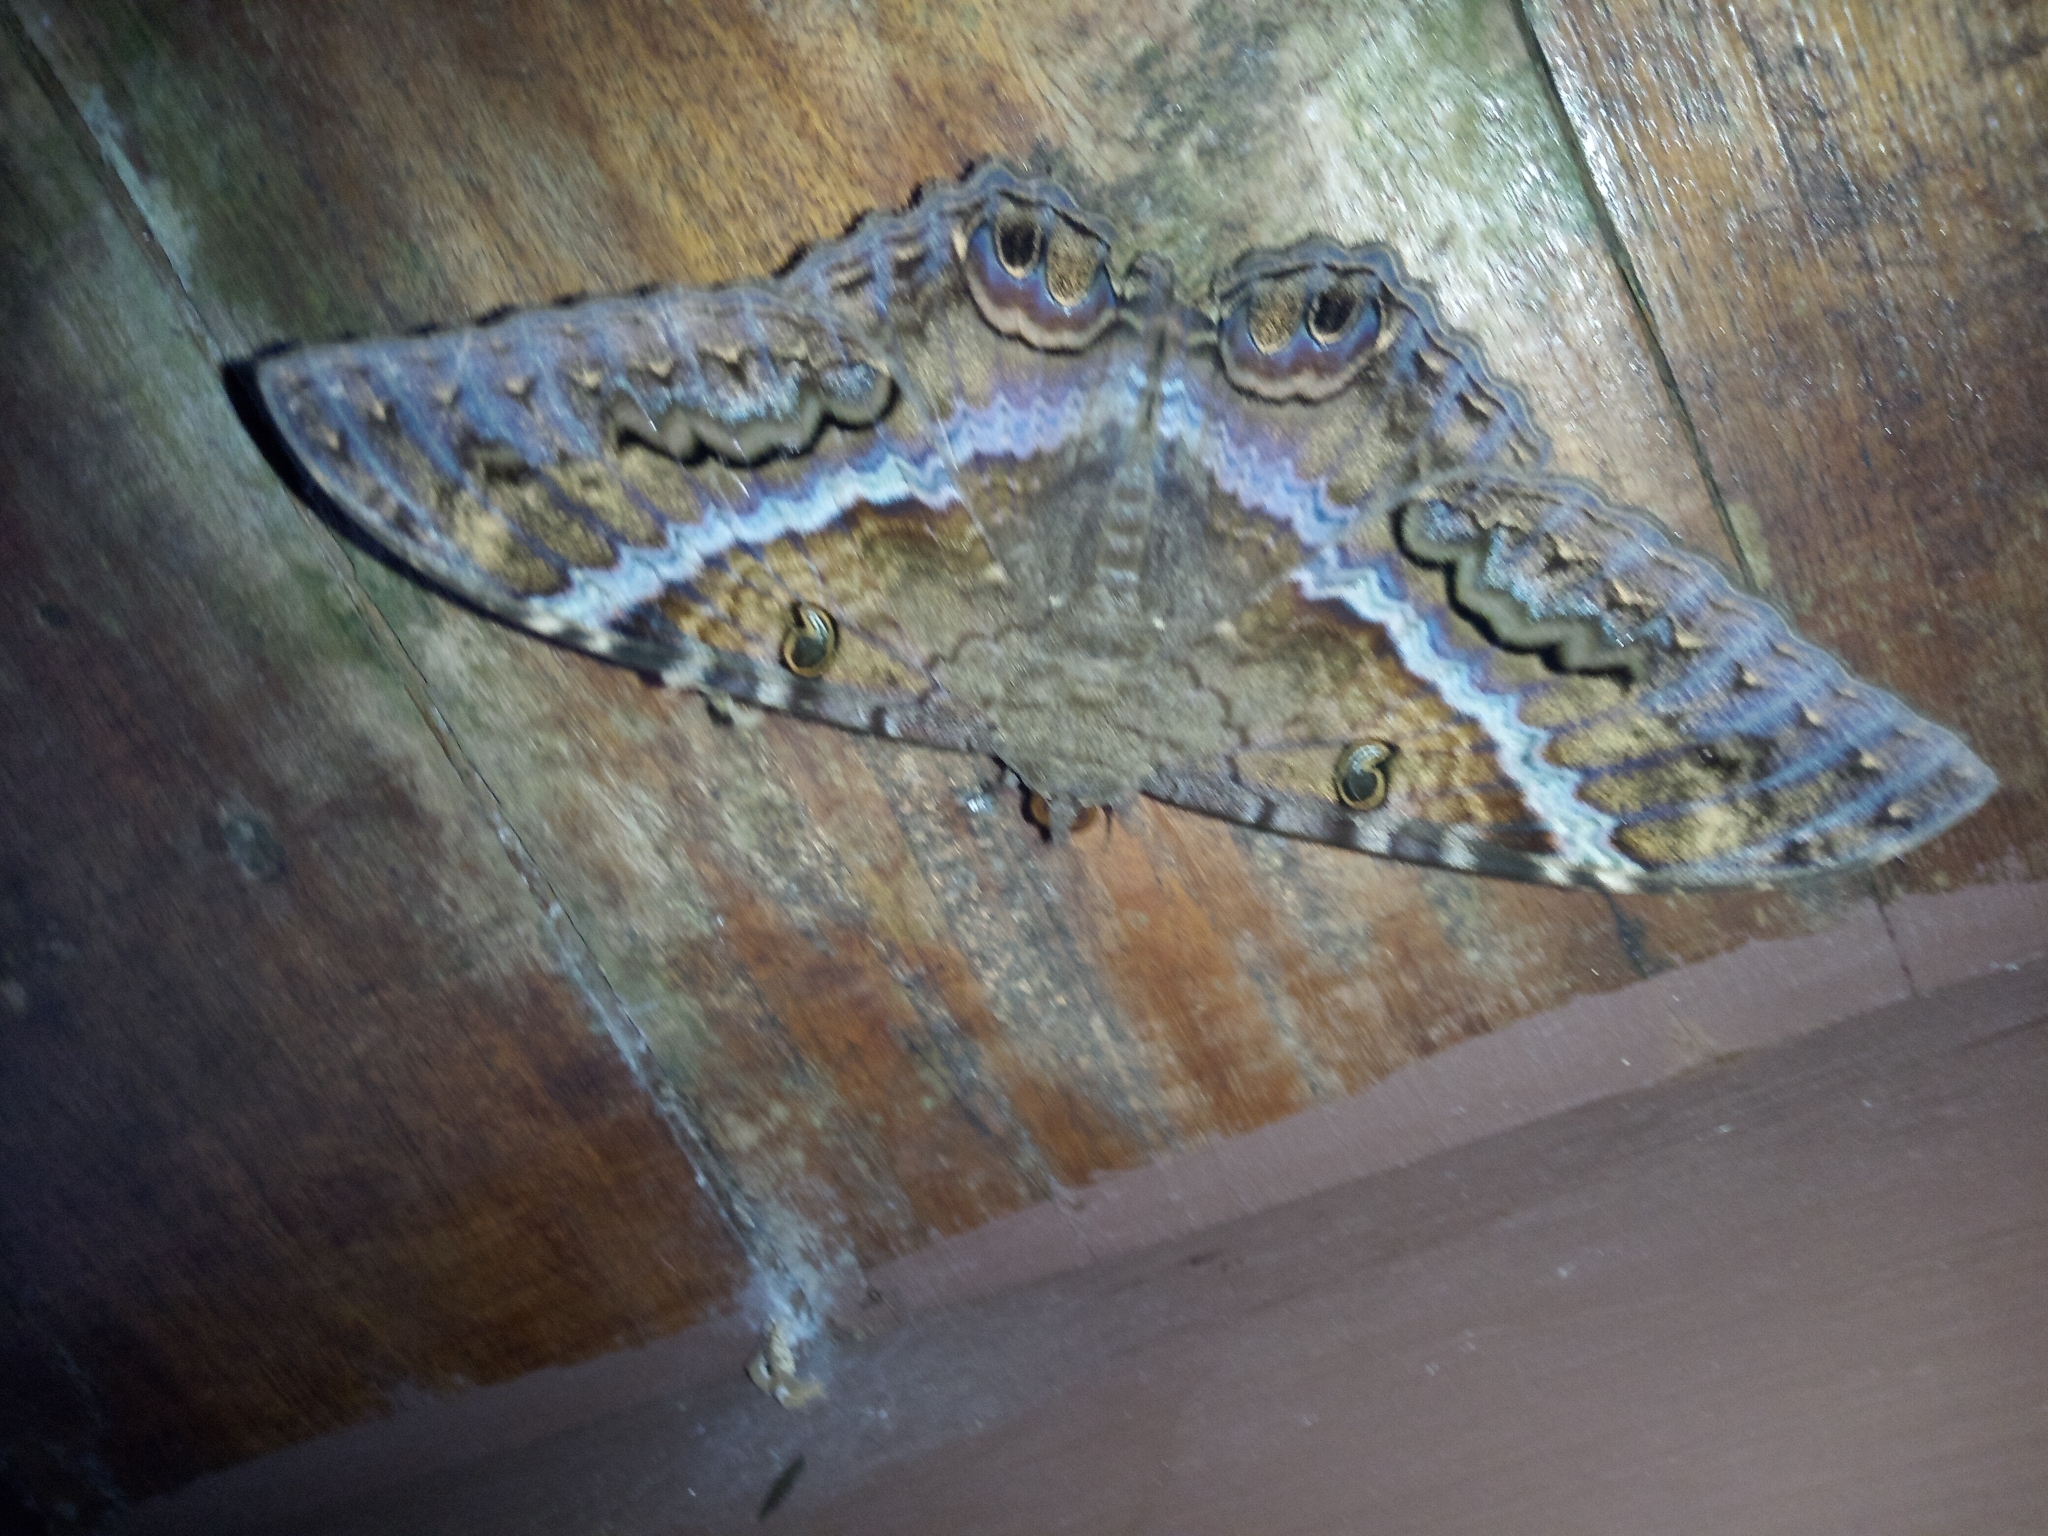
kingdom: Animalia
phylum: Arthropoda
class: Insecta
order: Lepidoptera
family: Erebidae
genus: Ascalapha
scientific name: Ascalapha odorata
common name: Black witch
